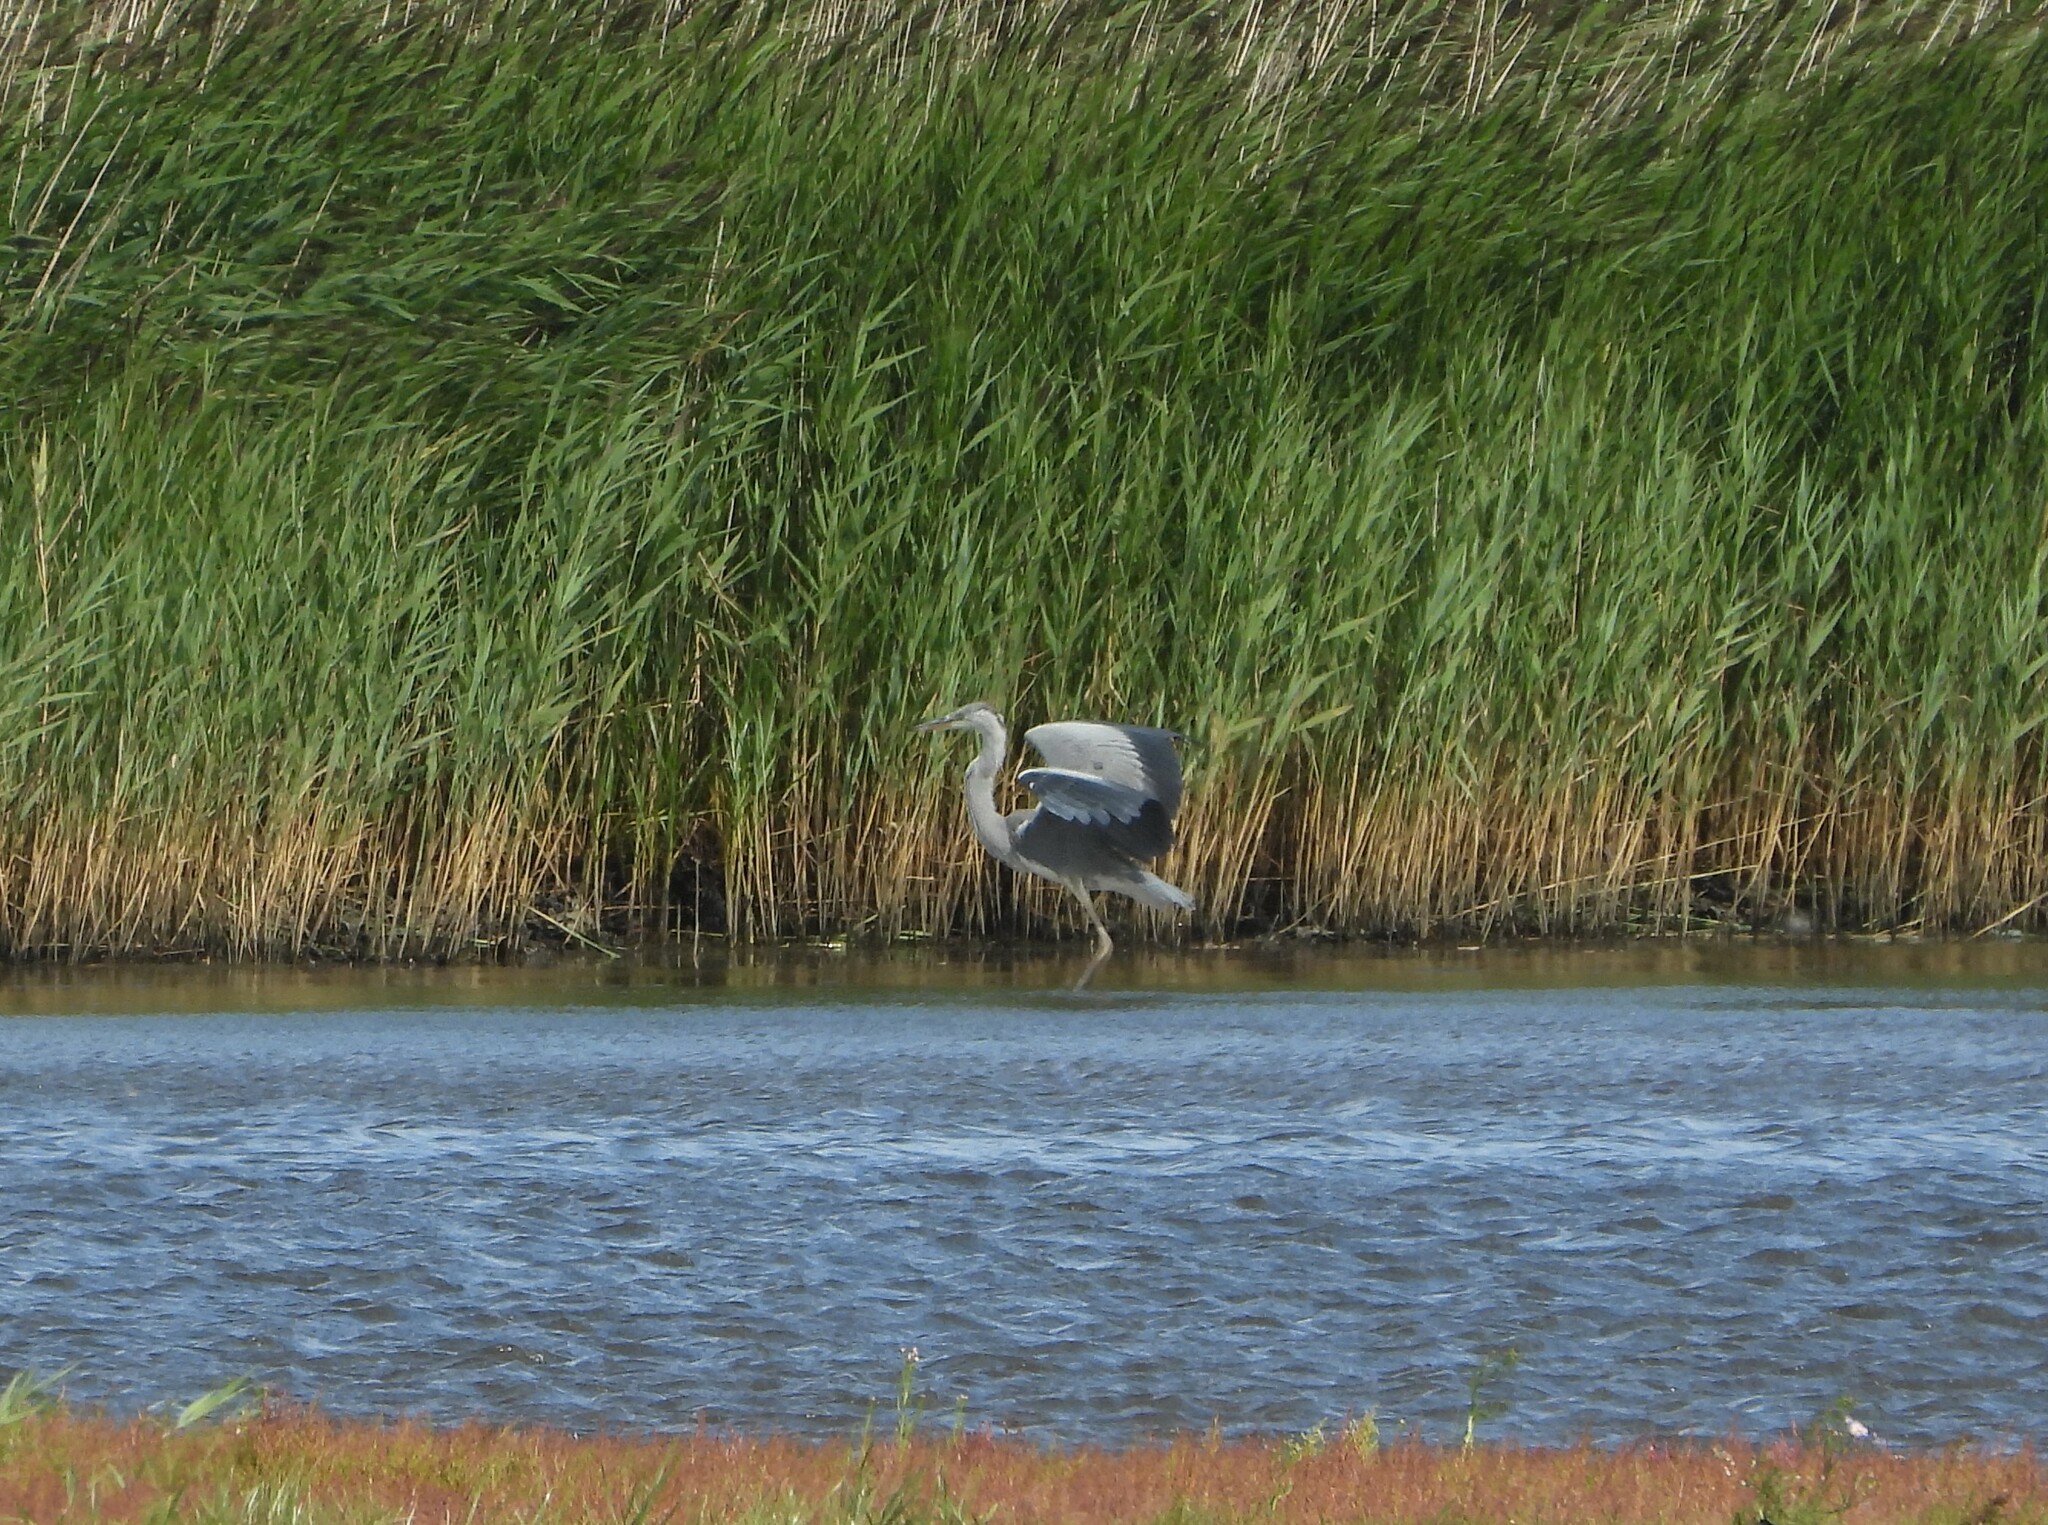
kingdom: Animalia
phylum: Chordata
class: Aves
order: Pelecaniformes
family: Ardeidae
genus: Ardea
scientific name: Ardea cinerea
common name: Grey heron
